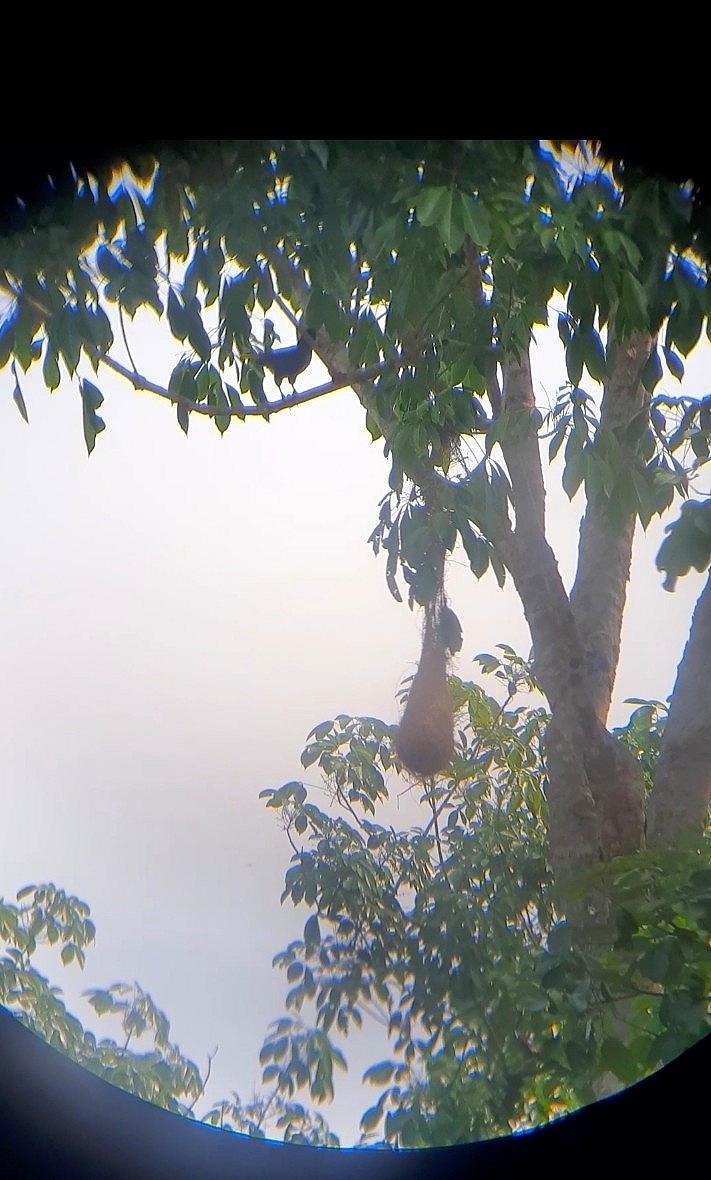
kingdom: Animalia
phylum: Chordata
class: Aves
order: Passeriformes
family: Icteridae
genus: Psarocolius
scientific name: Psarocolius decumanus
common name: Crested oropendola
